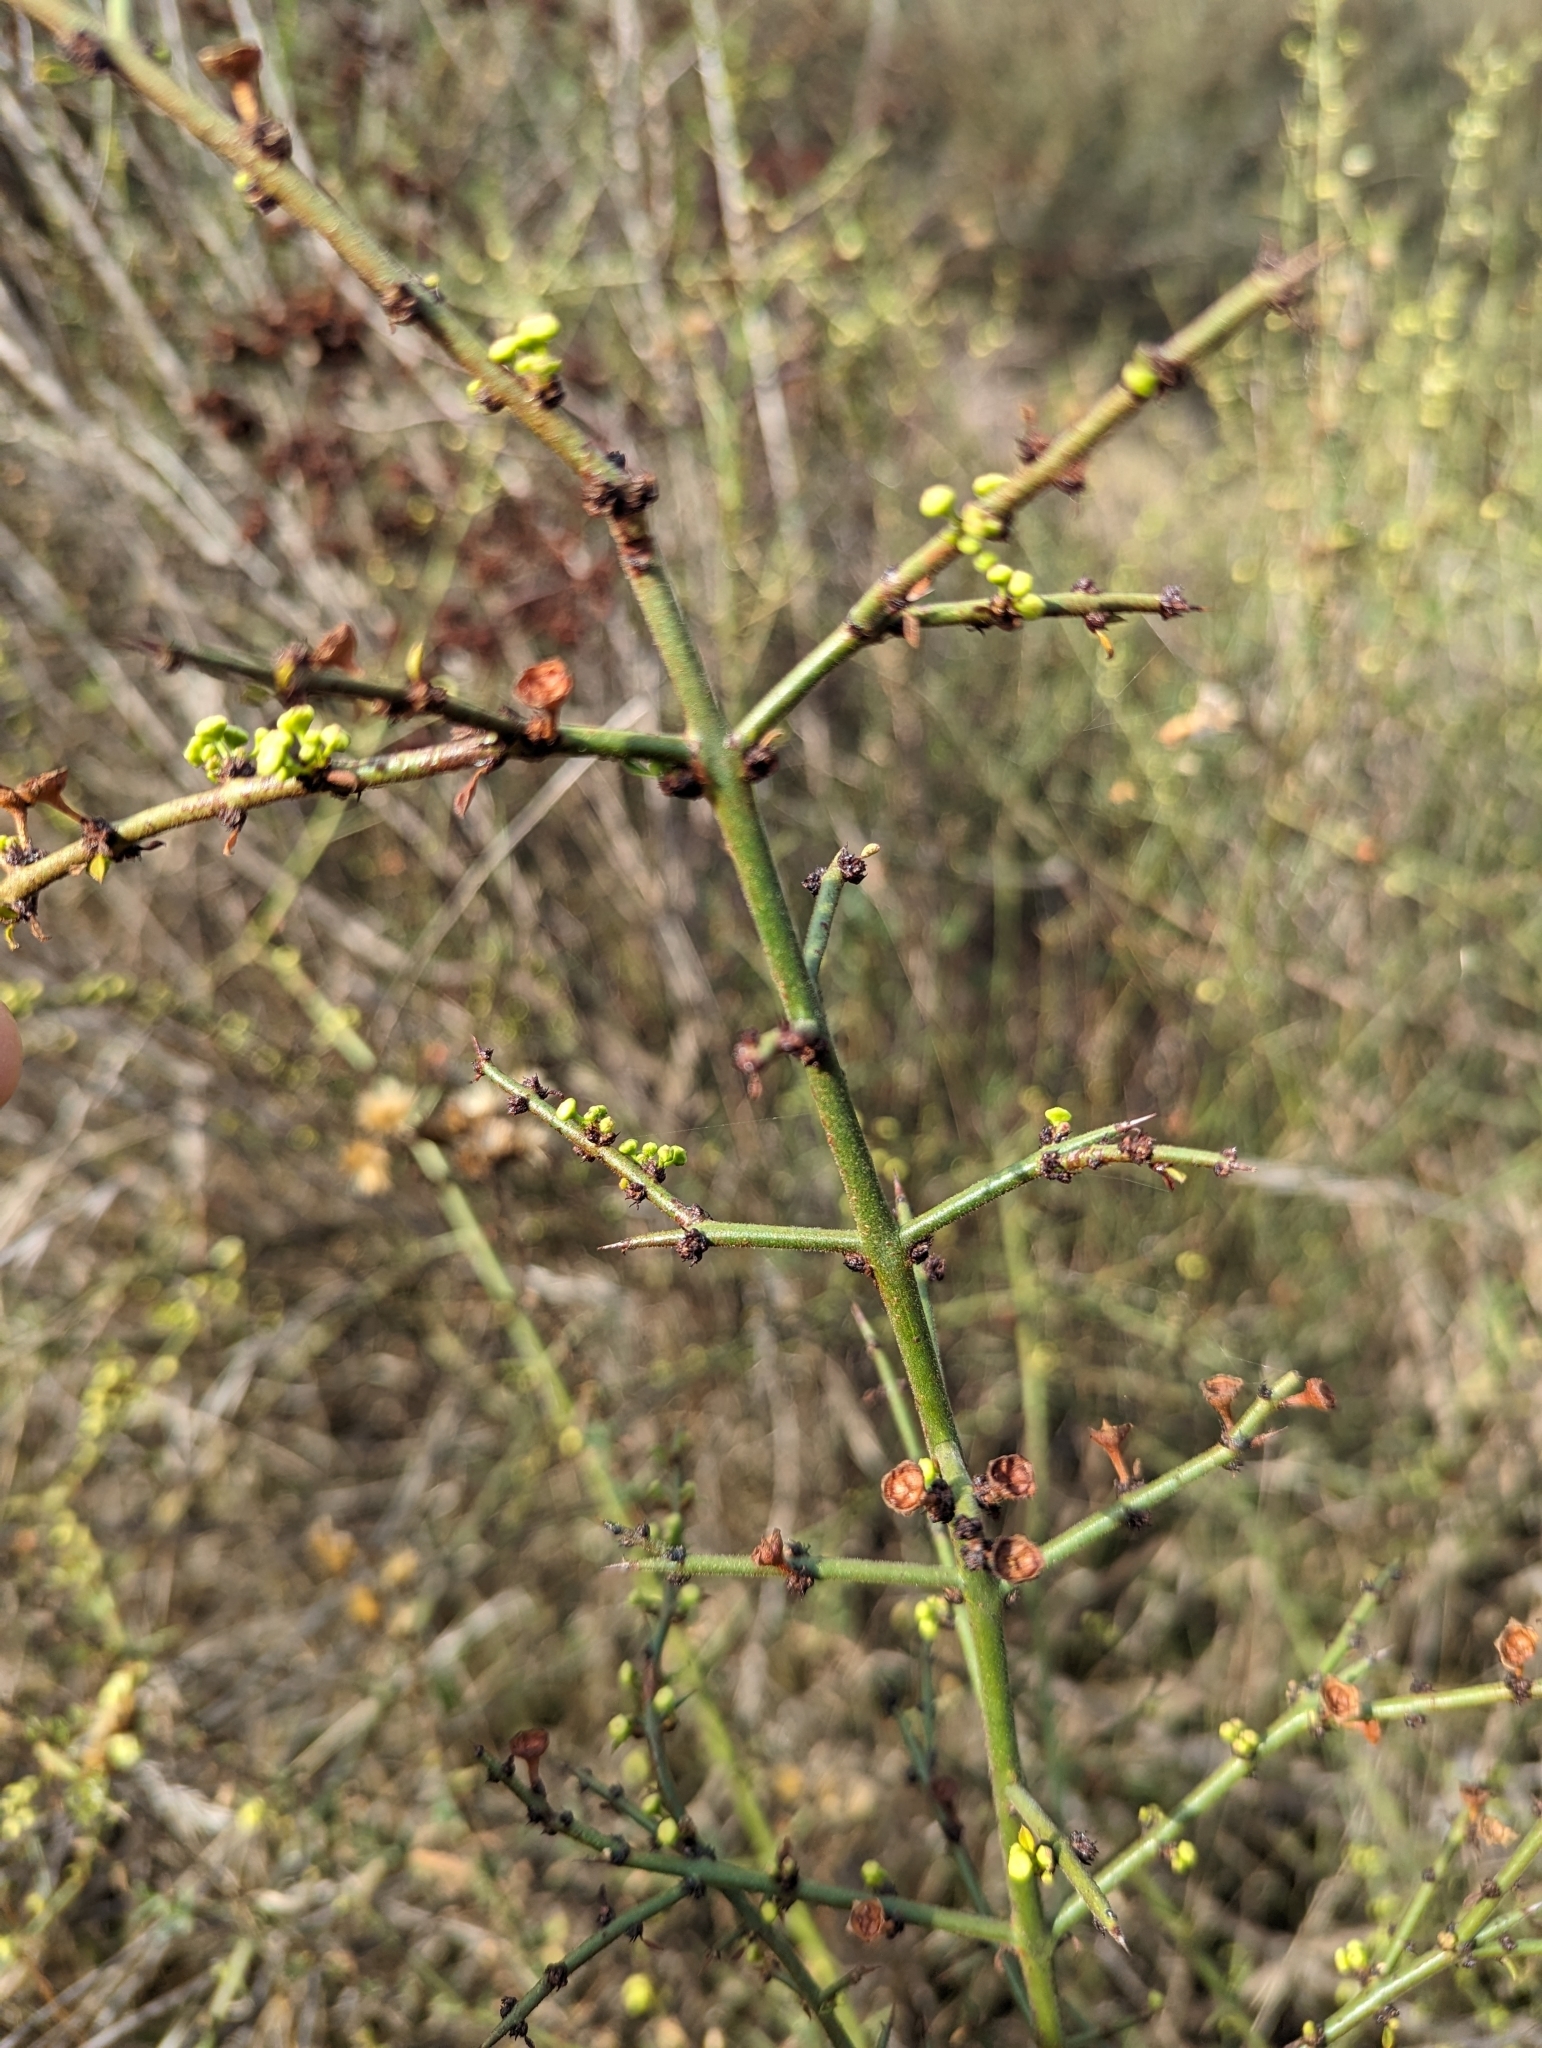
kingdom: Plantae
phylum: Tracheophyta
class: Magnoliopsida
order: Rosales
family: Rhamnaceae
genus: Adolphia
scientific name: Adolphia californica
